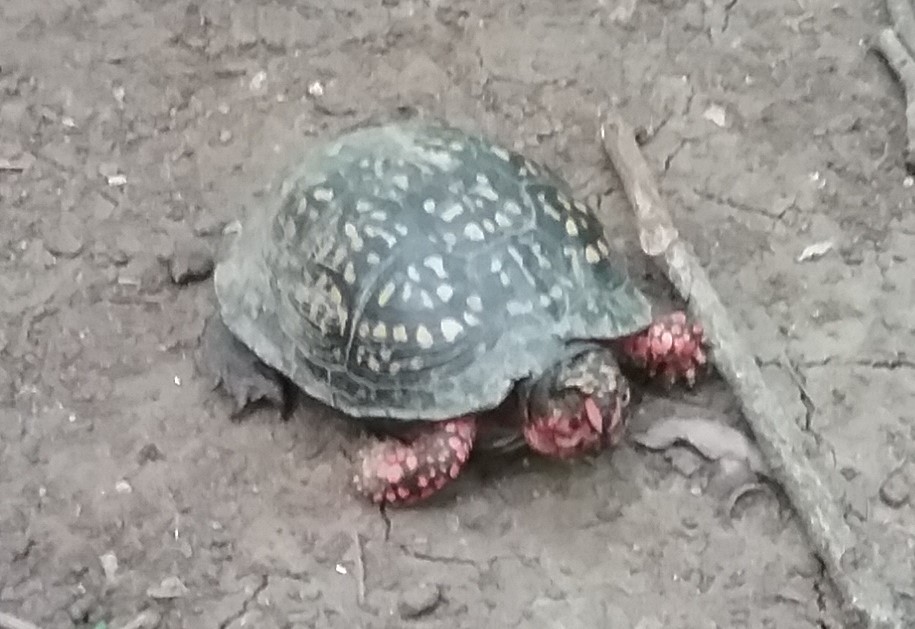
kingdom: Animalia
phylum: Chordata
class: Testudines
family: Emydidae
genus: Terrapene
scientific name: Terrapene carolina
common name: Common box turtle
